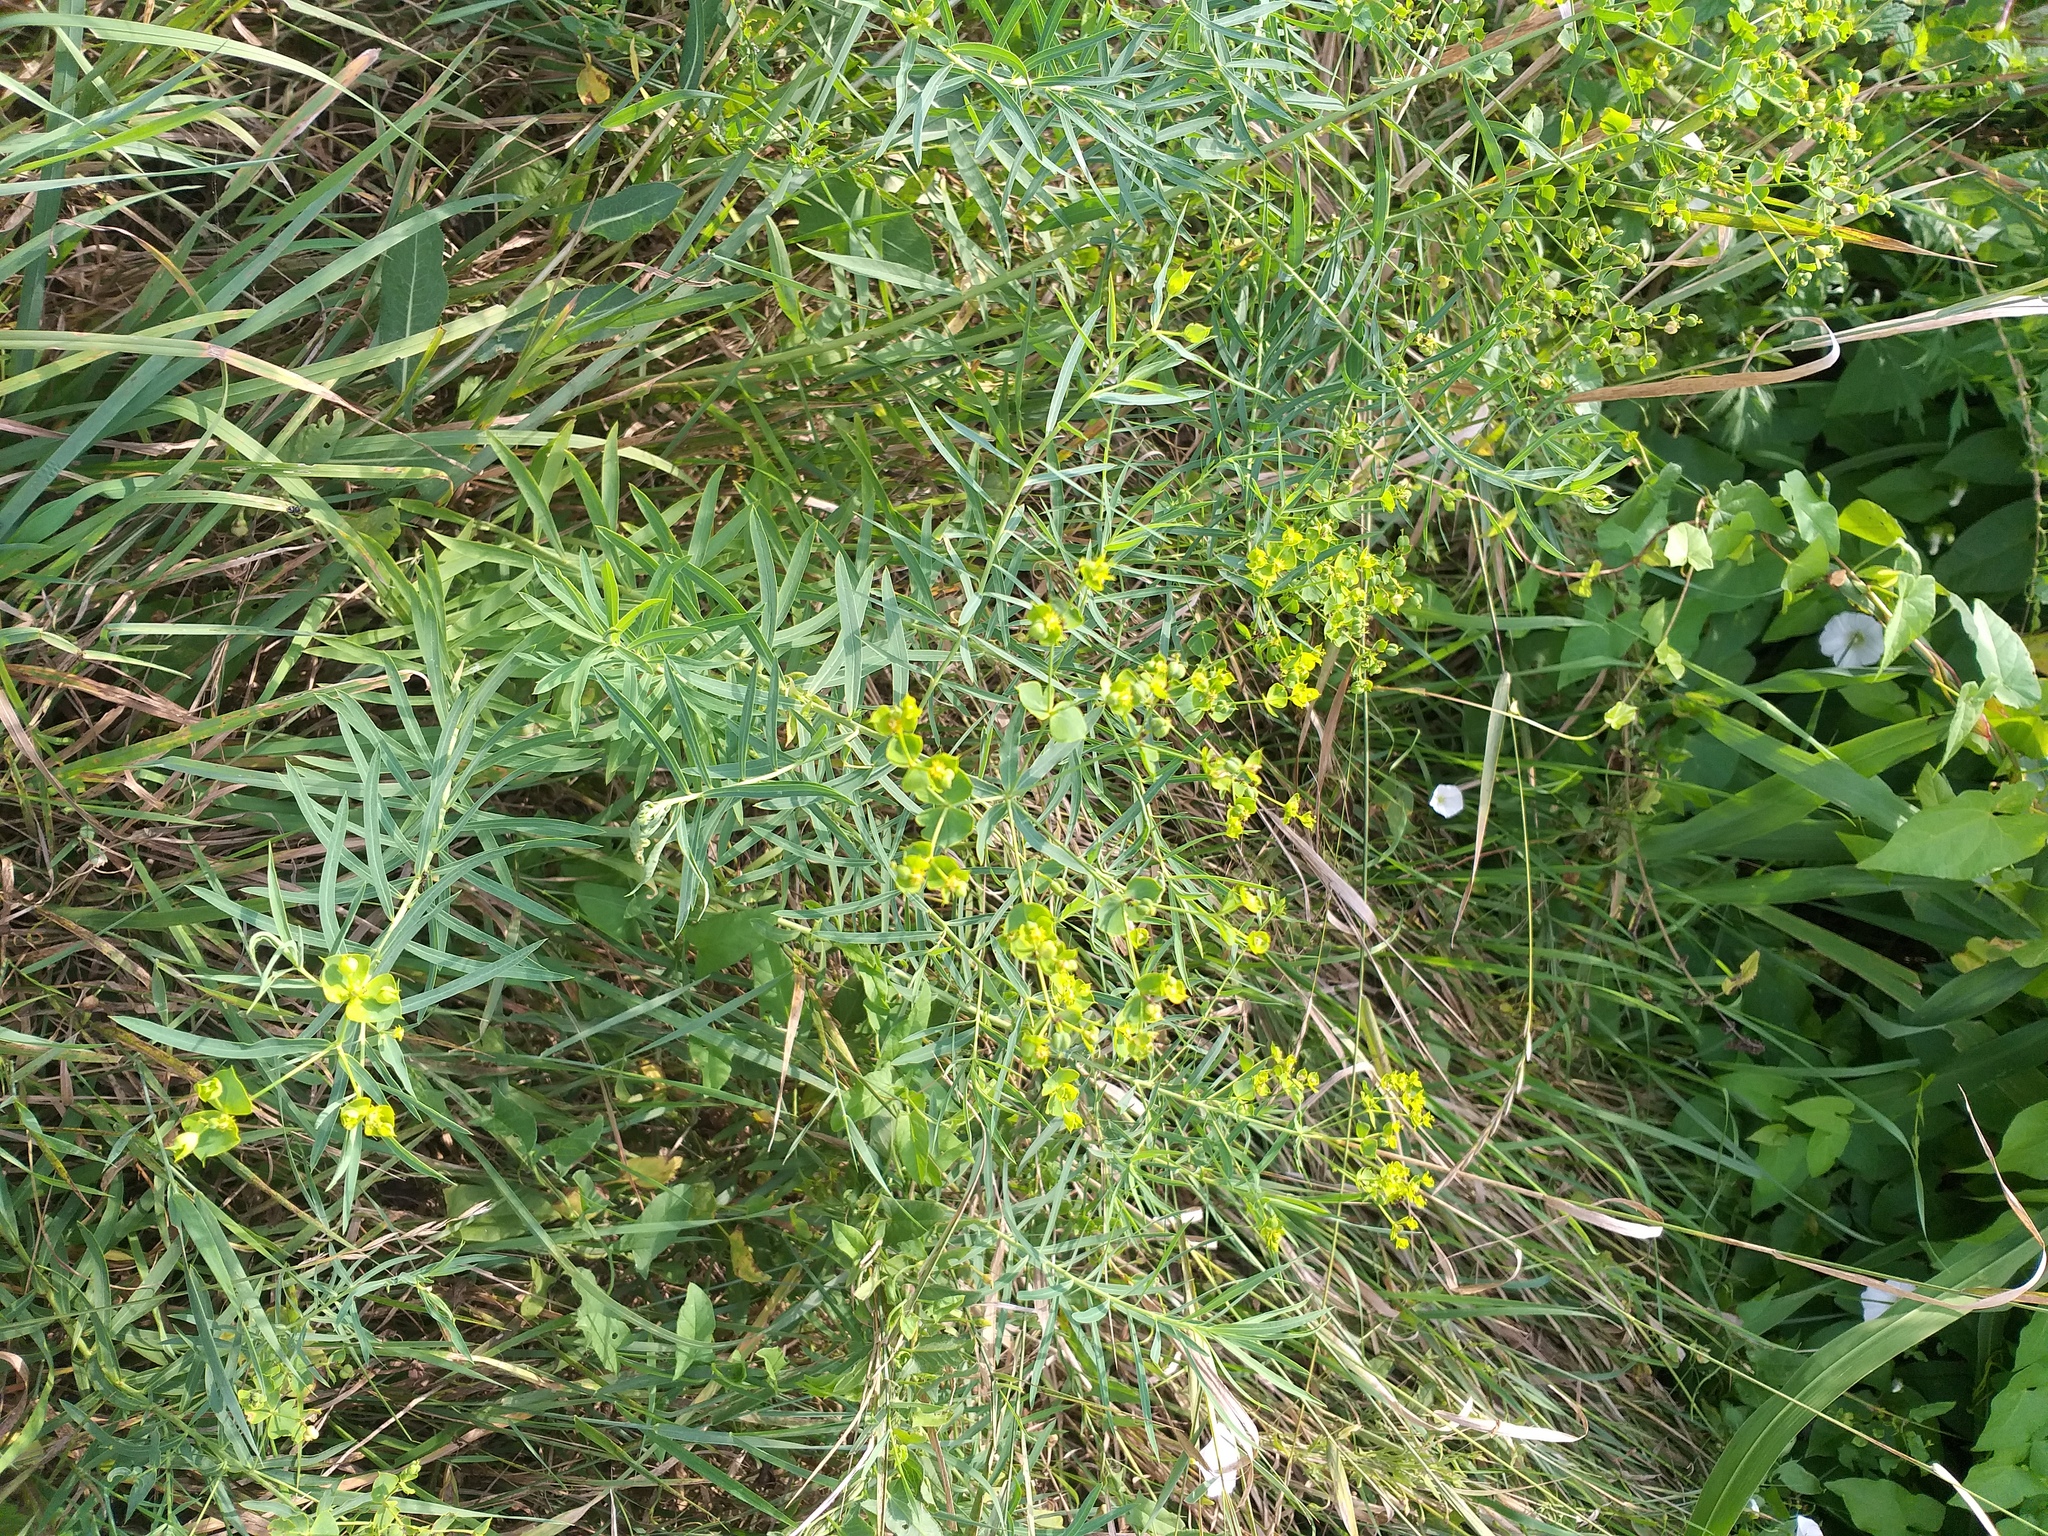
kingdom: Plantae
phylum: Tracheophyta
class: Magnoliopsida
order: Malpighiales
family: Euphorbiaceae
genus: Euphorbia
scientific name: Euphorbia virgata
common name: Leafy spurge
